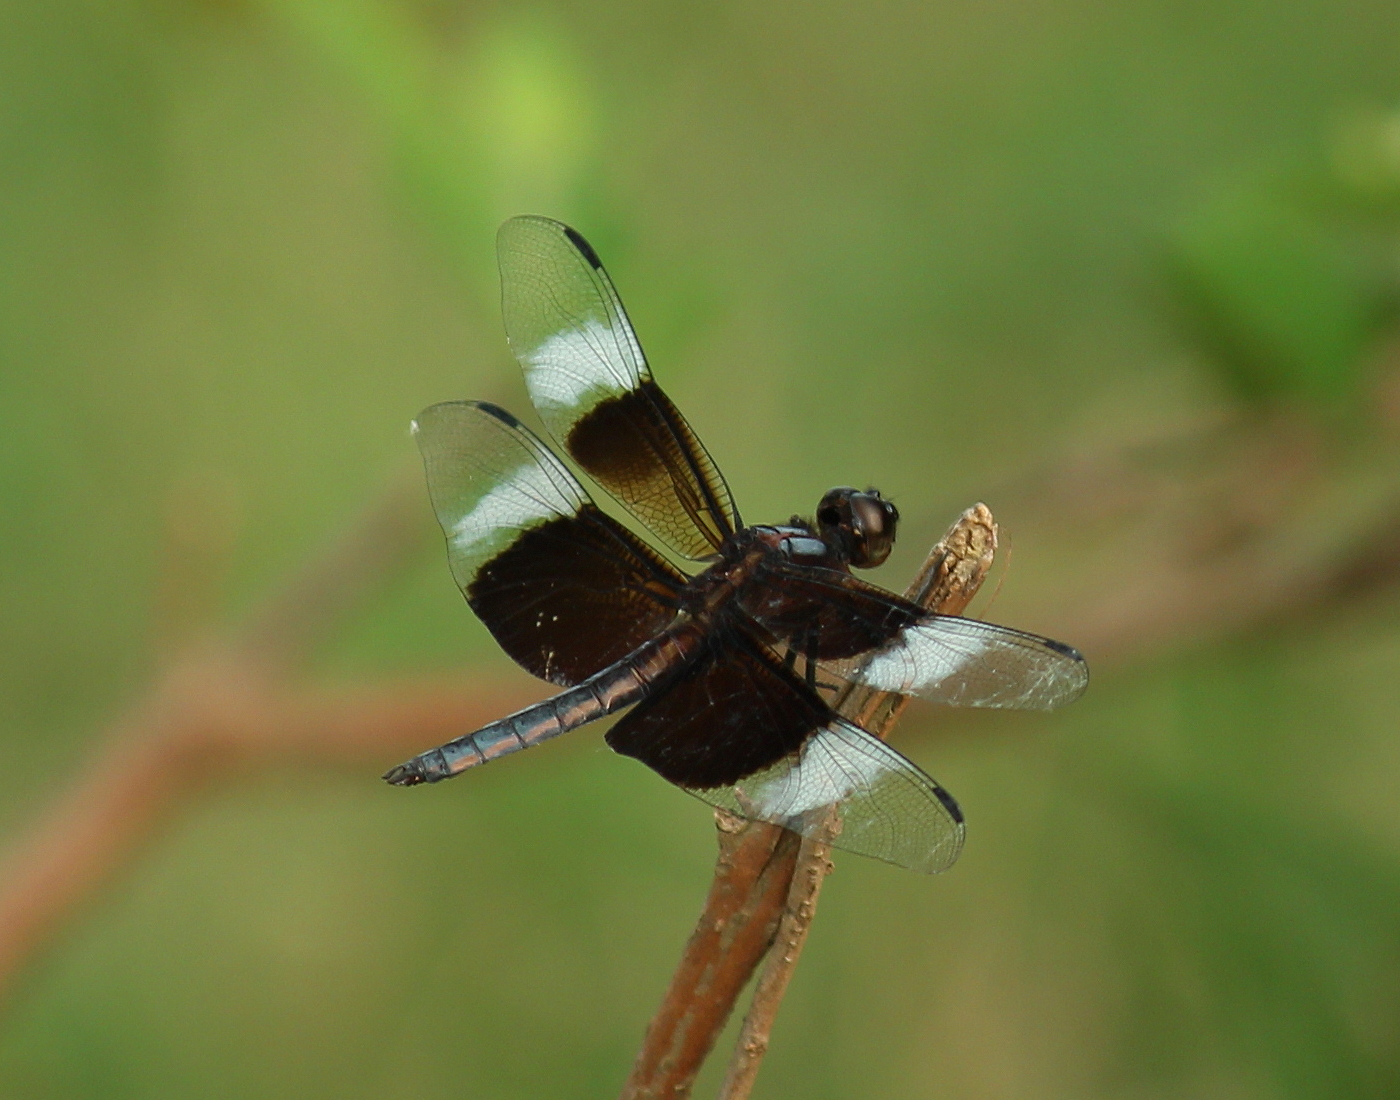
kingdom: Animalia
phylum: Arthropoda
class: Insecta
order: Odonata
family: Libellulidae
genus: Libellula
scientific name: Libellula luctuosa
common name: Widow skimmer
